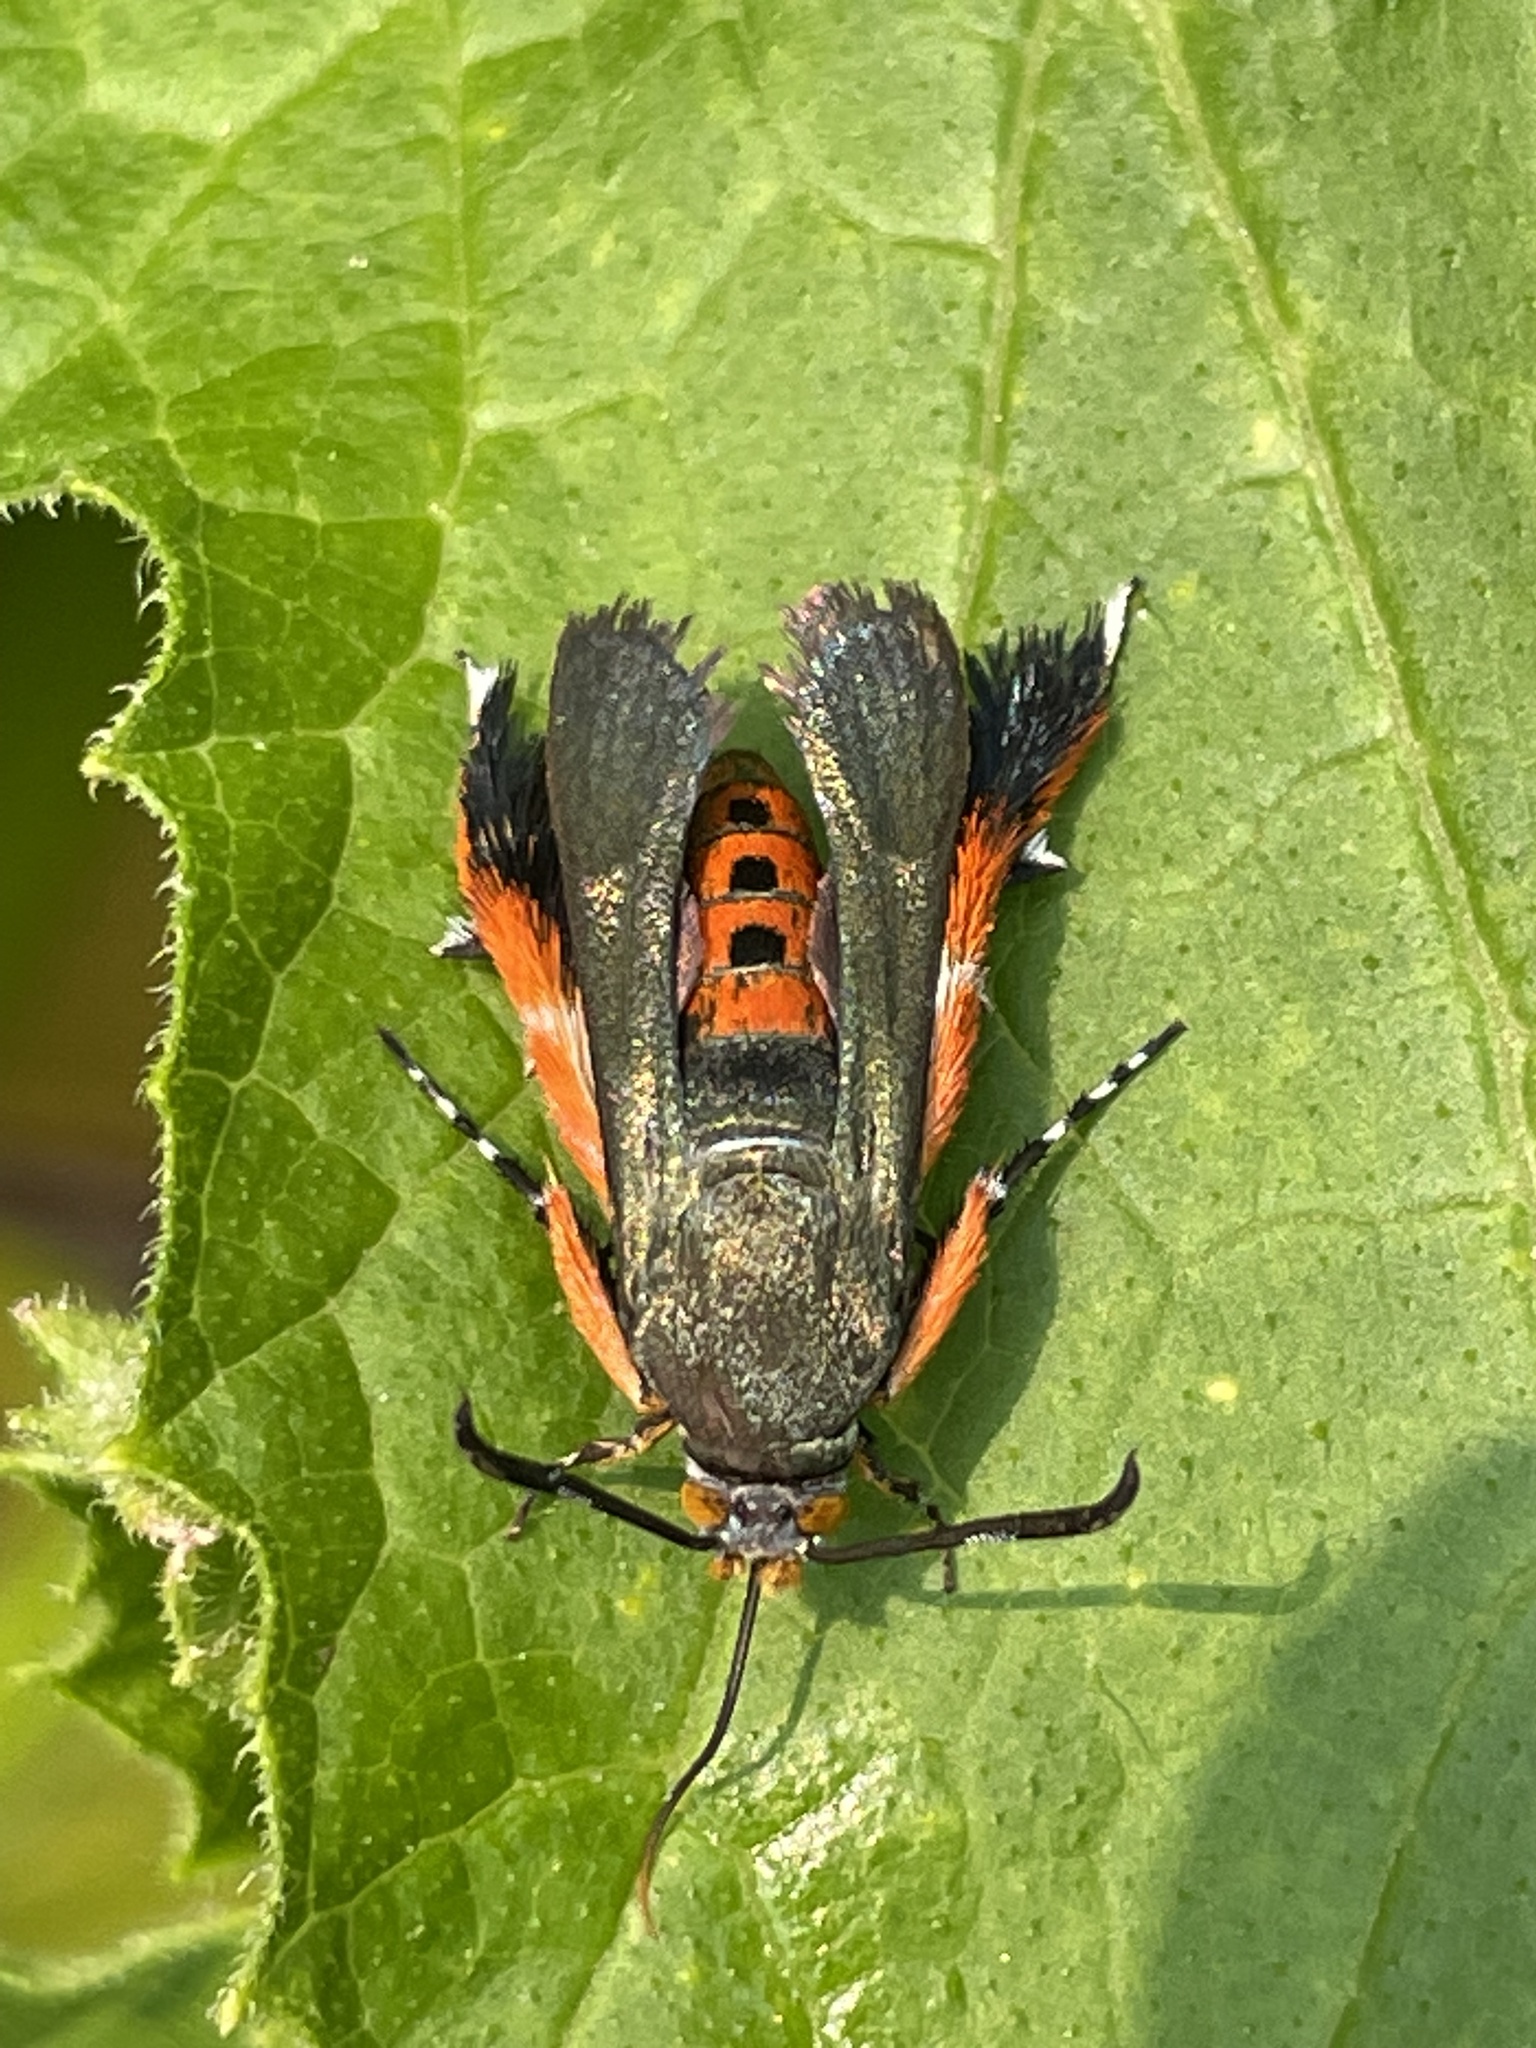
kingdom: Animalia
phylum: Arthropoda
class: Insecta
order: Lepidoptera
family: Sesiidae
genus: Eichlinia
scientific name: Eichlinia cucurbitae
